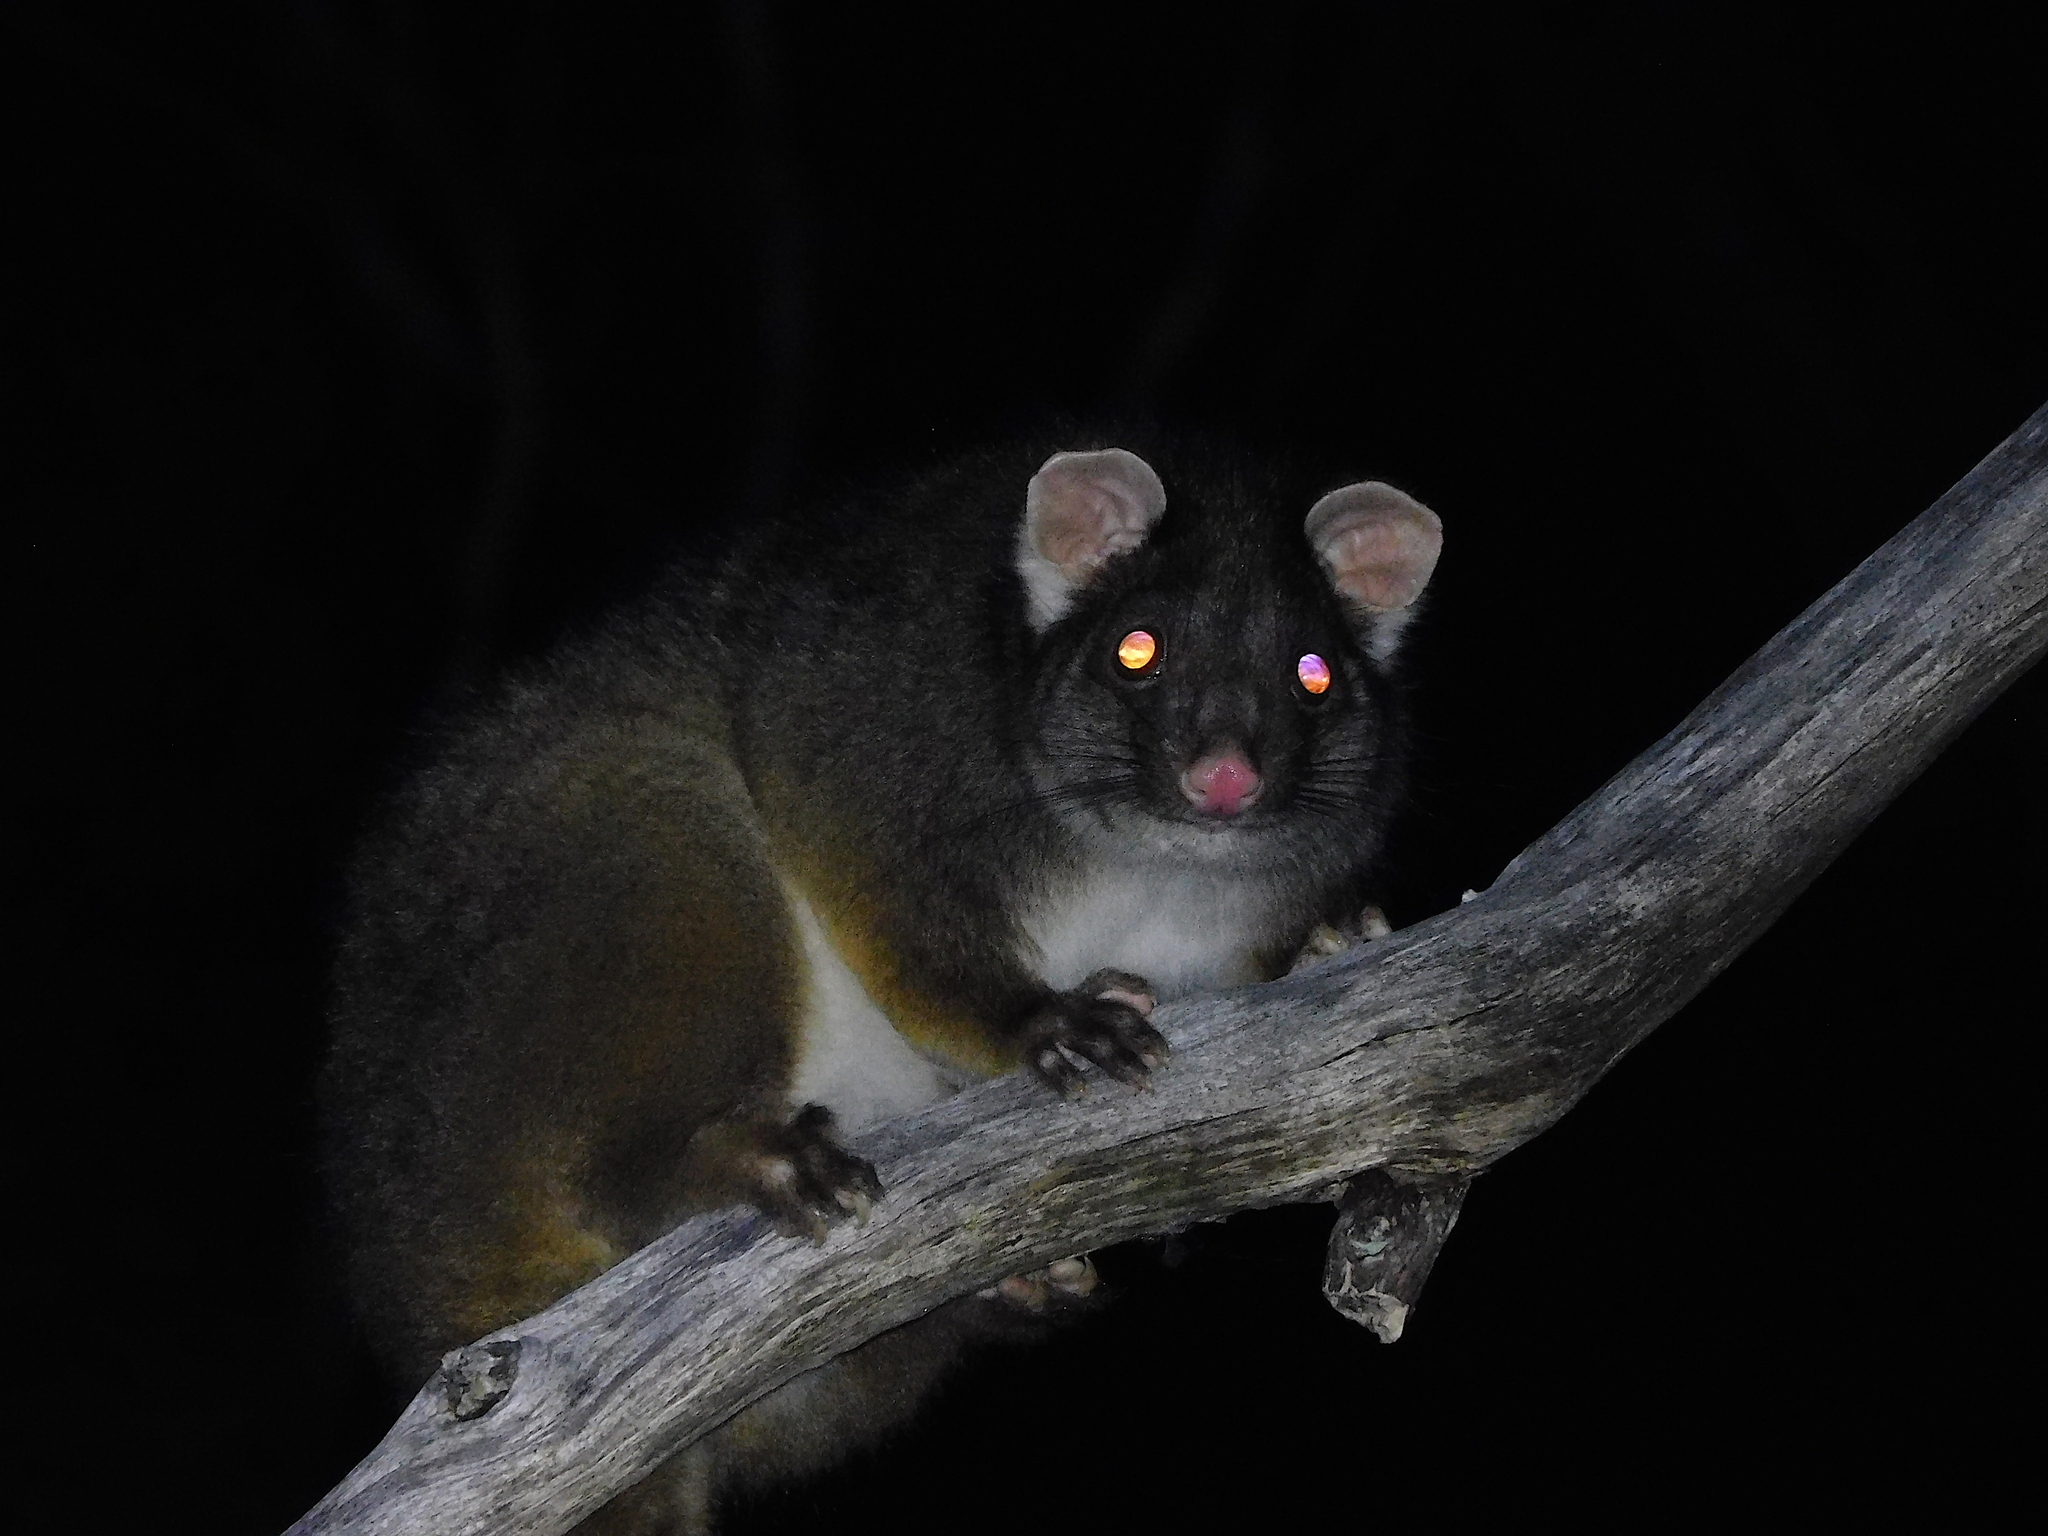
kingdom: Animalia
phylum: Chordata
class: Mammalia
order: Diprotodontia
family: Pseudocheiridae
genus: Pseudocheirus
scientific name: Pseudocheirus peregrinus
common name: Common ringtail possum
